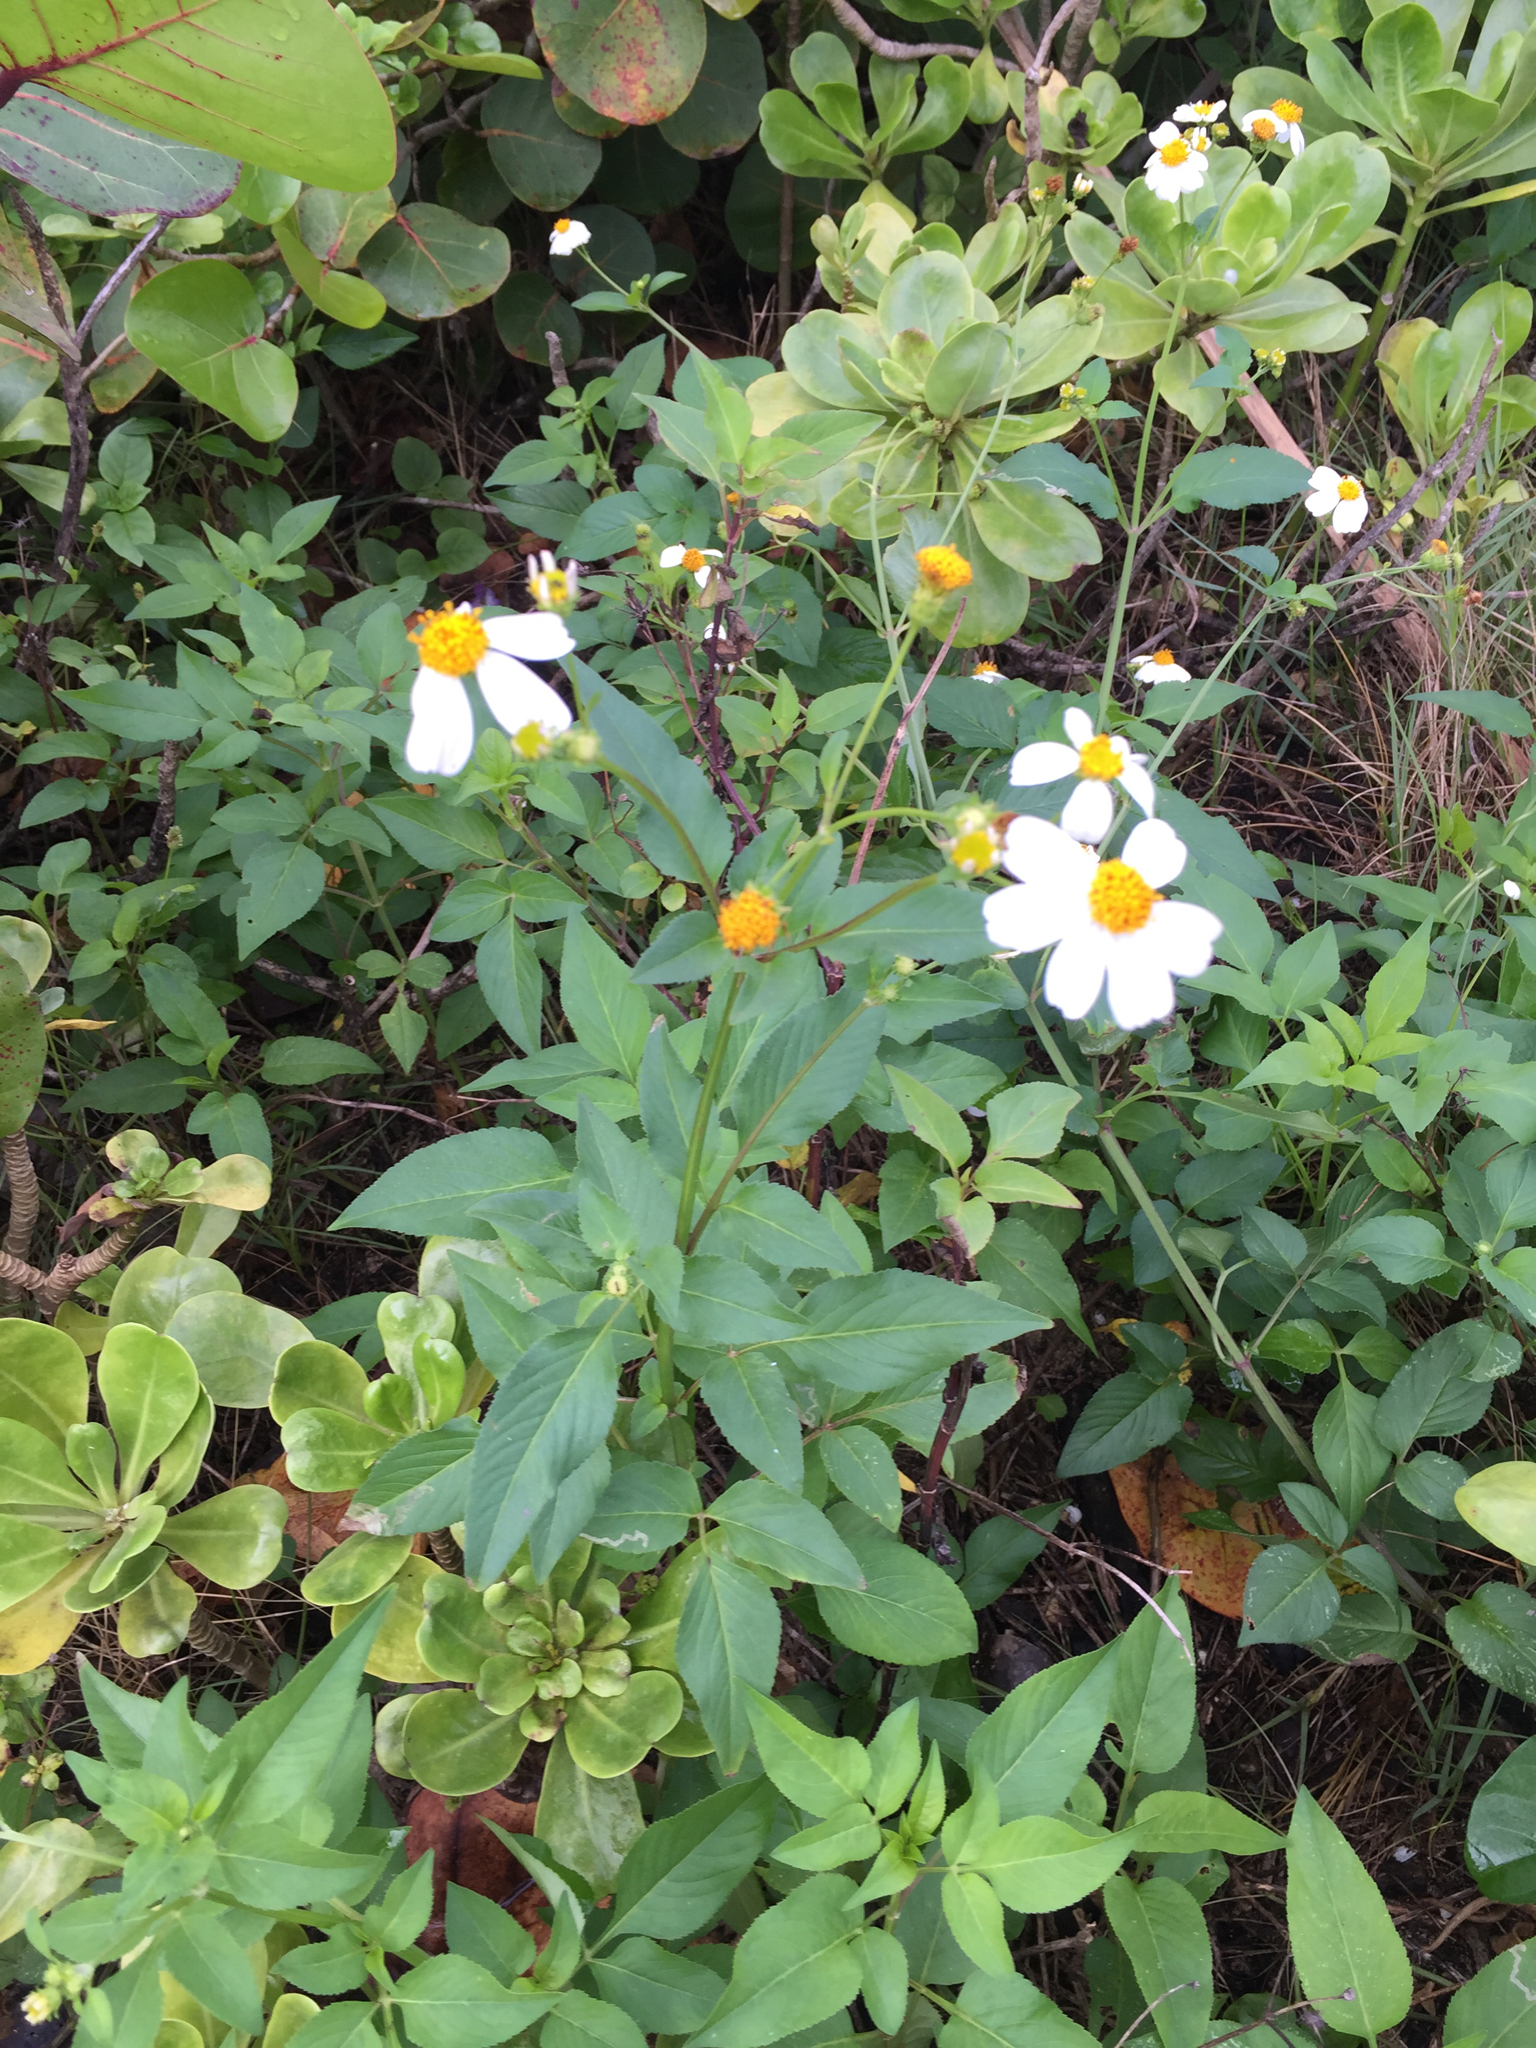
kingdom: Plantae
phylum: Tracheophyta
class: Magnoliopsida
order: Asterales
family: Asteraceae
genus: Bidens
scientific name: Bidens alba
